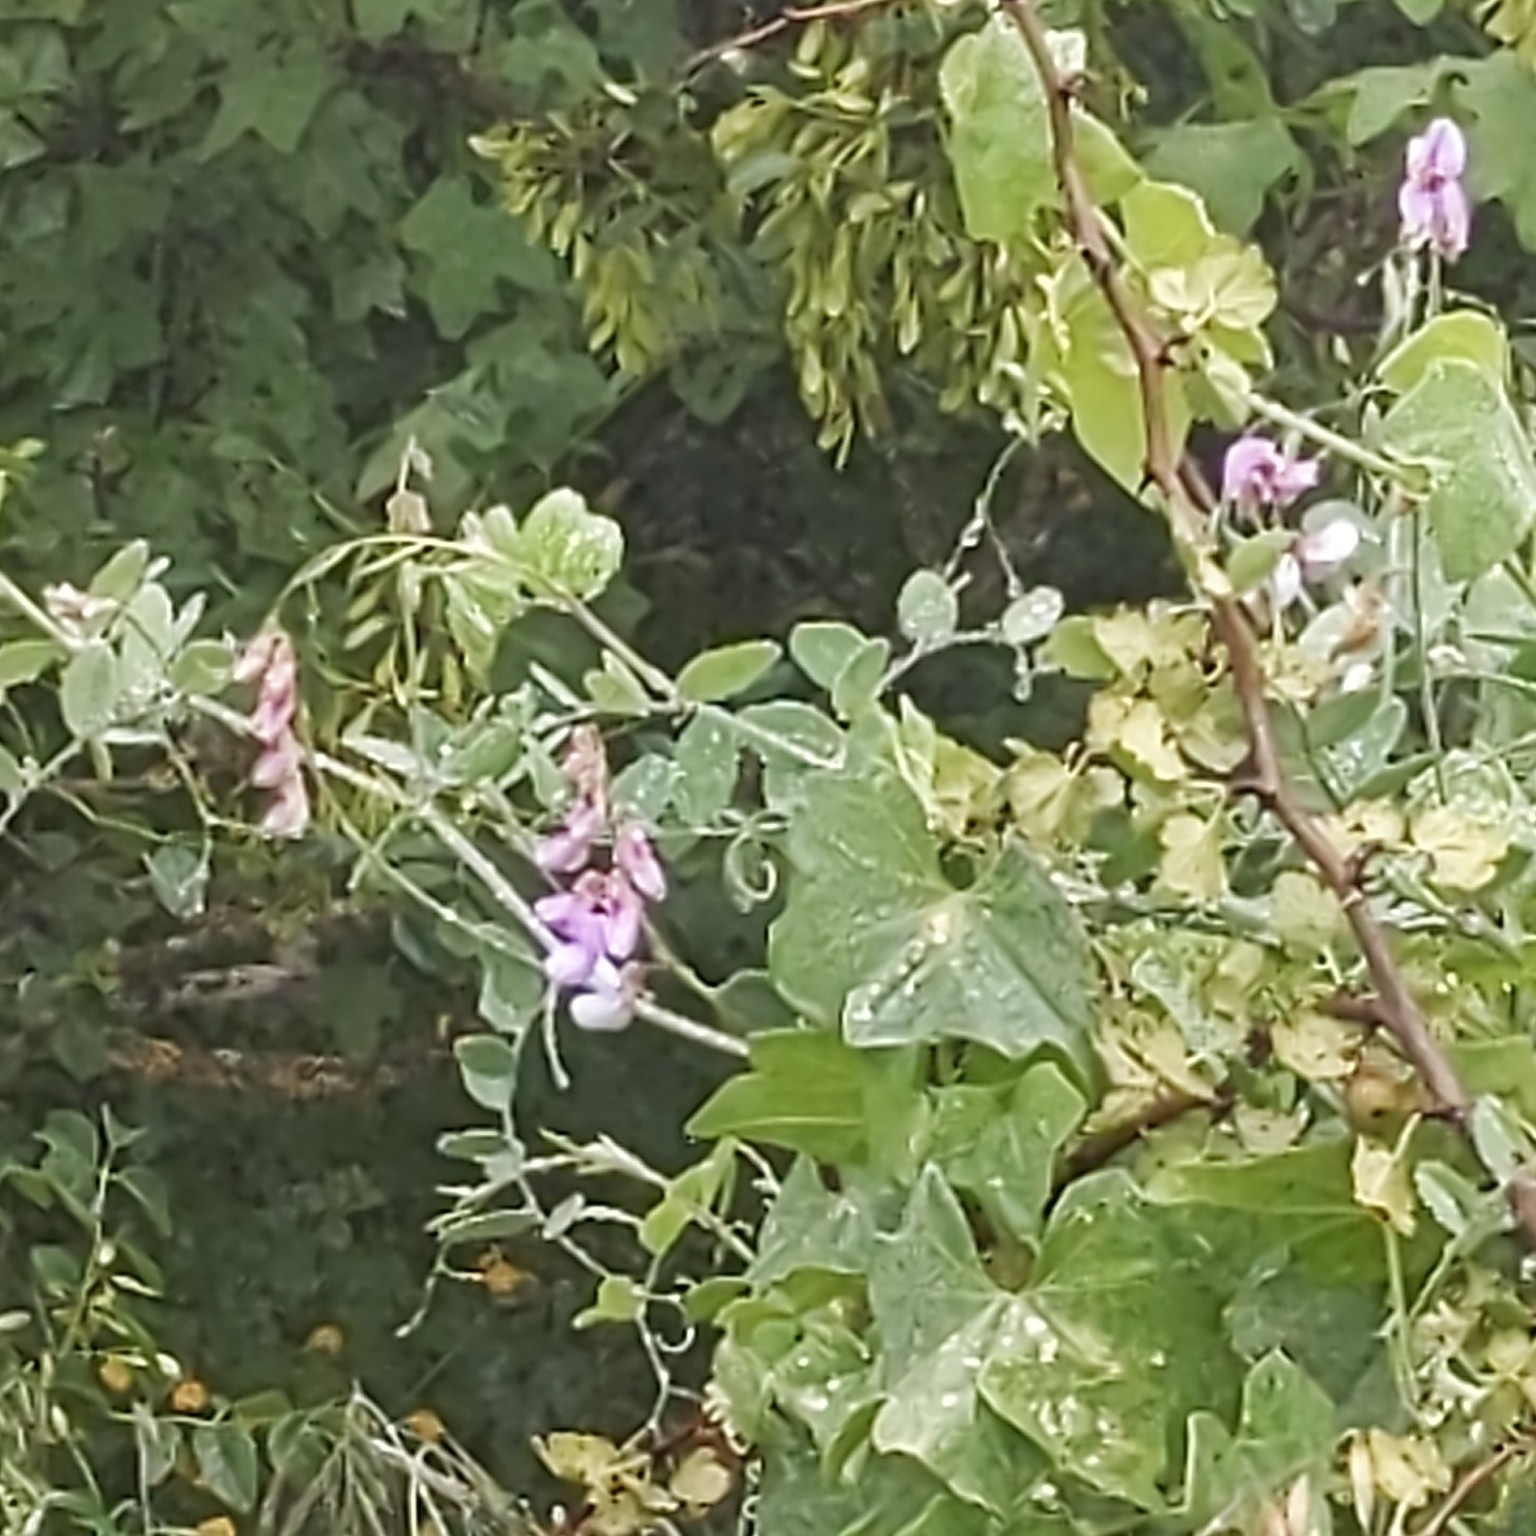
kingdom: Plantae
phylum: Tracheophyta
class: Magnoliopsida
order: Fabales
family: Fabaceae
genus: Lathyrus
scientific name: Lathyrus vestitus
